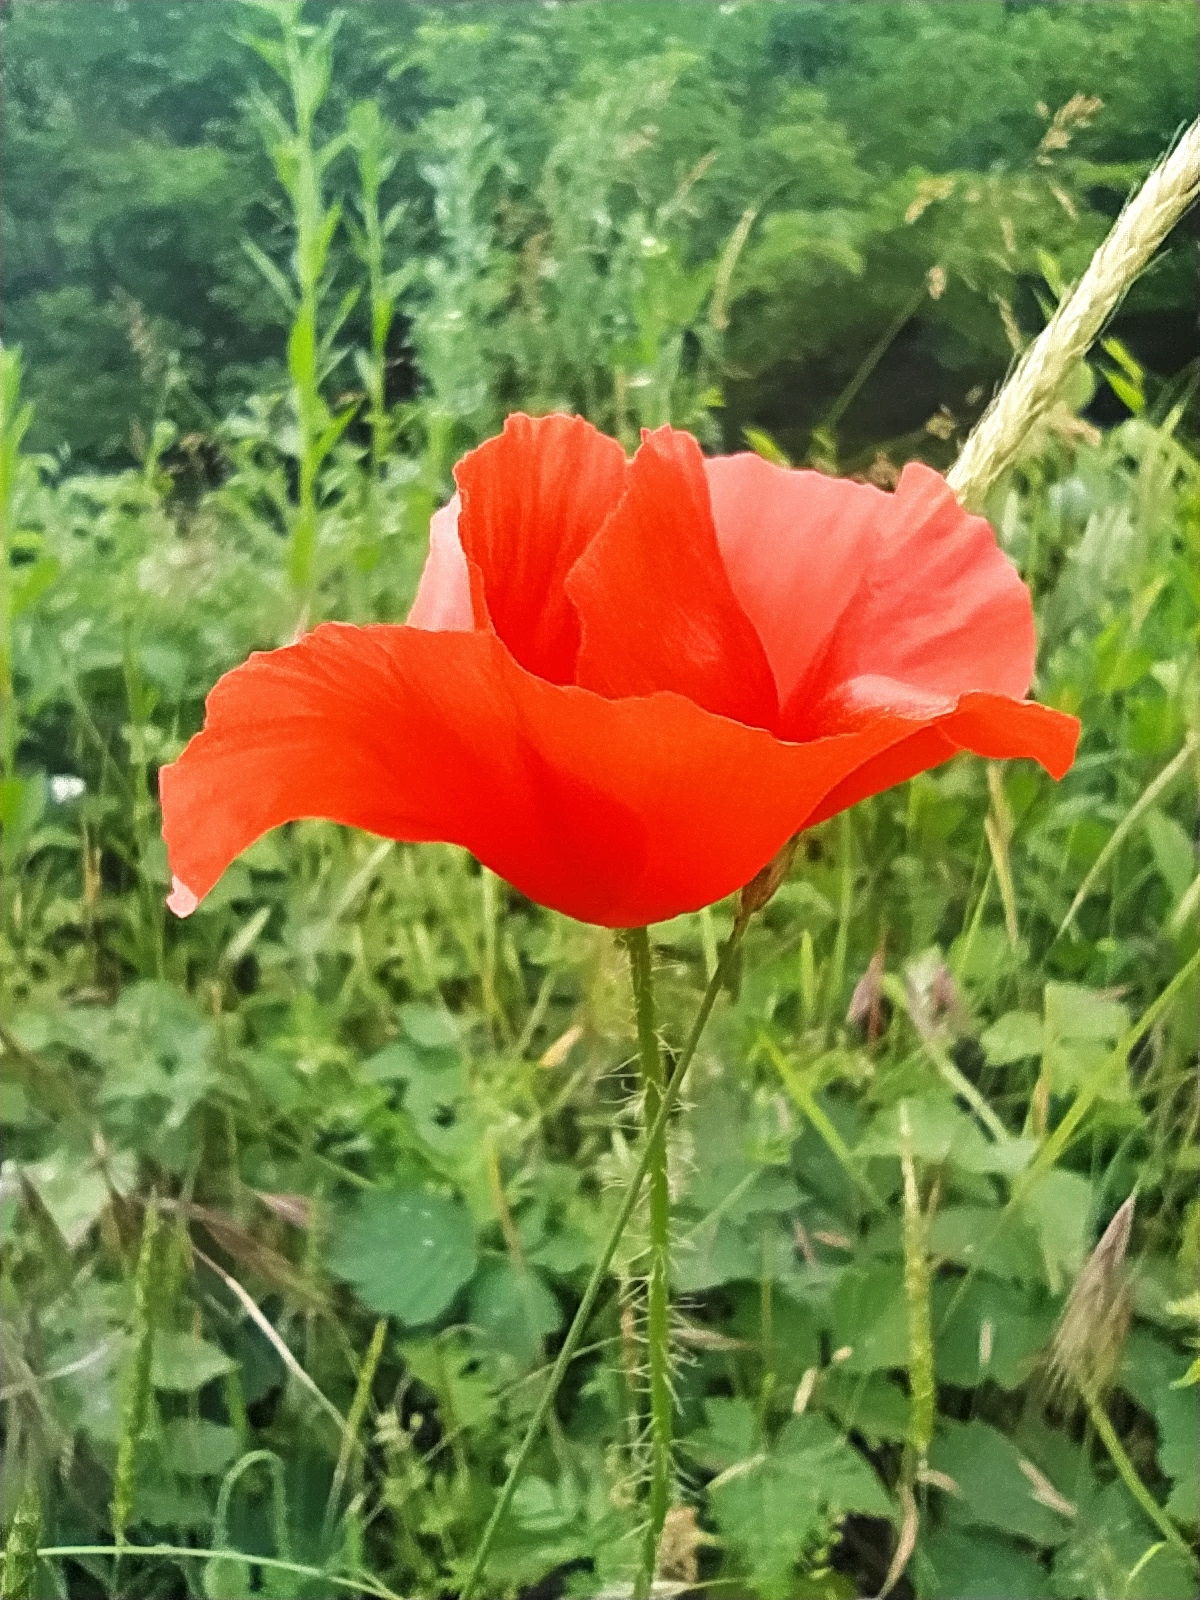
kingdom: Plantae
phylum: Tracheophyta
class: Magnoliopsida
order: Ranunculales
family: Papaveraceae
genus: Papaver
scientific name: Papaver rhoeas
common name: Corn poppy
